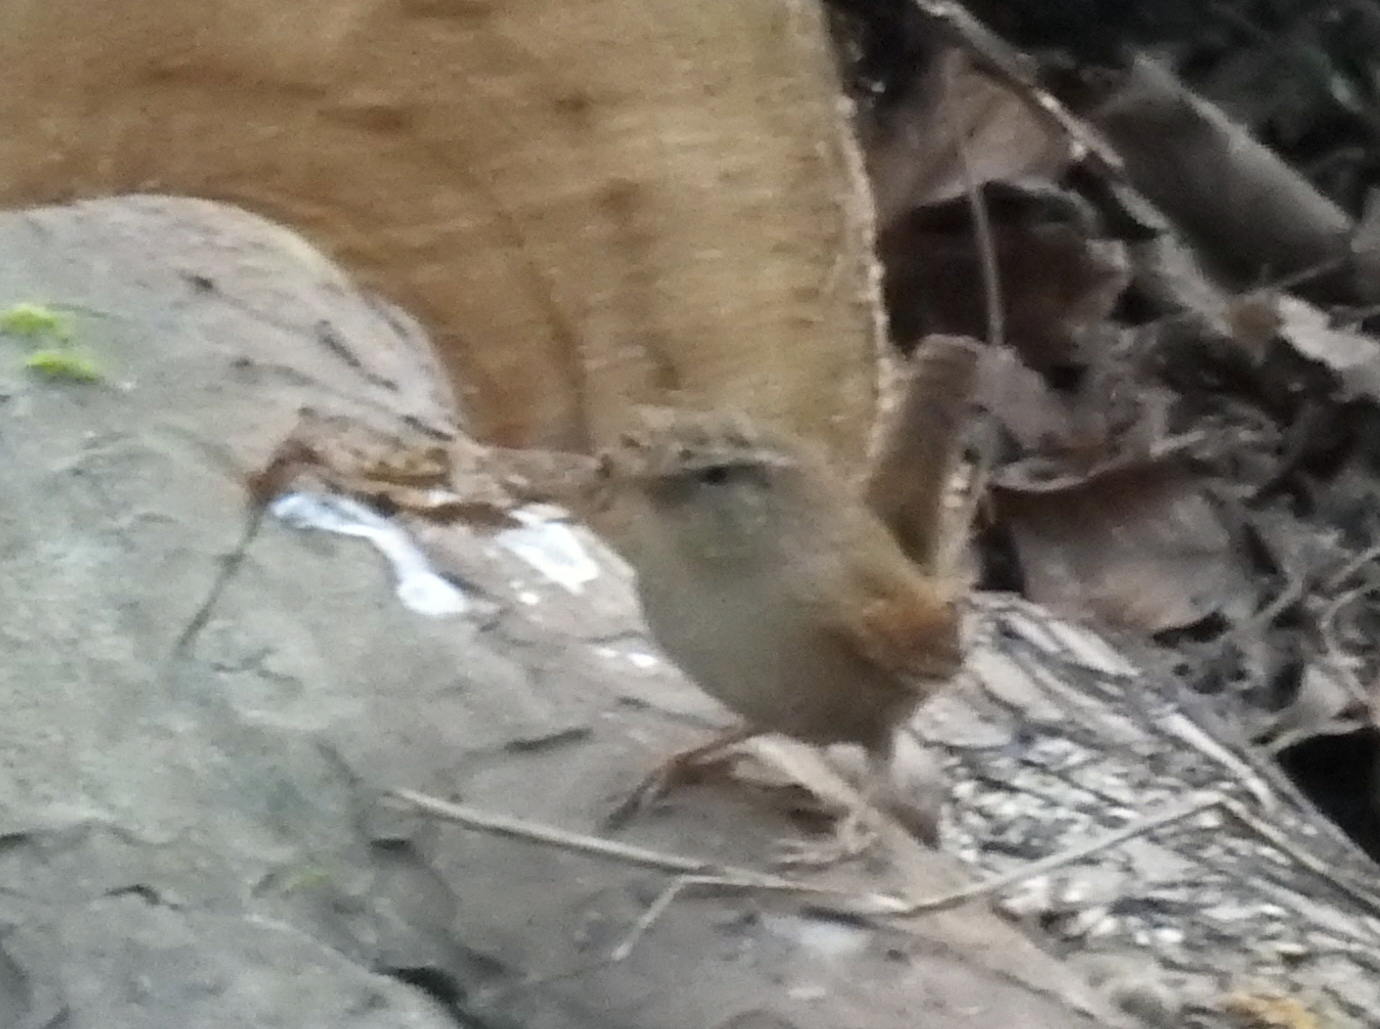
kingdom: Animalia
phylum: Chordata
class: Aves
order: Passeriformes
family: Troglodytidae
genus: Troglodytes
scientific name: Troglodytes troglodytes
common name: Eurasian wren
